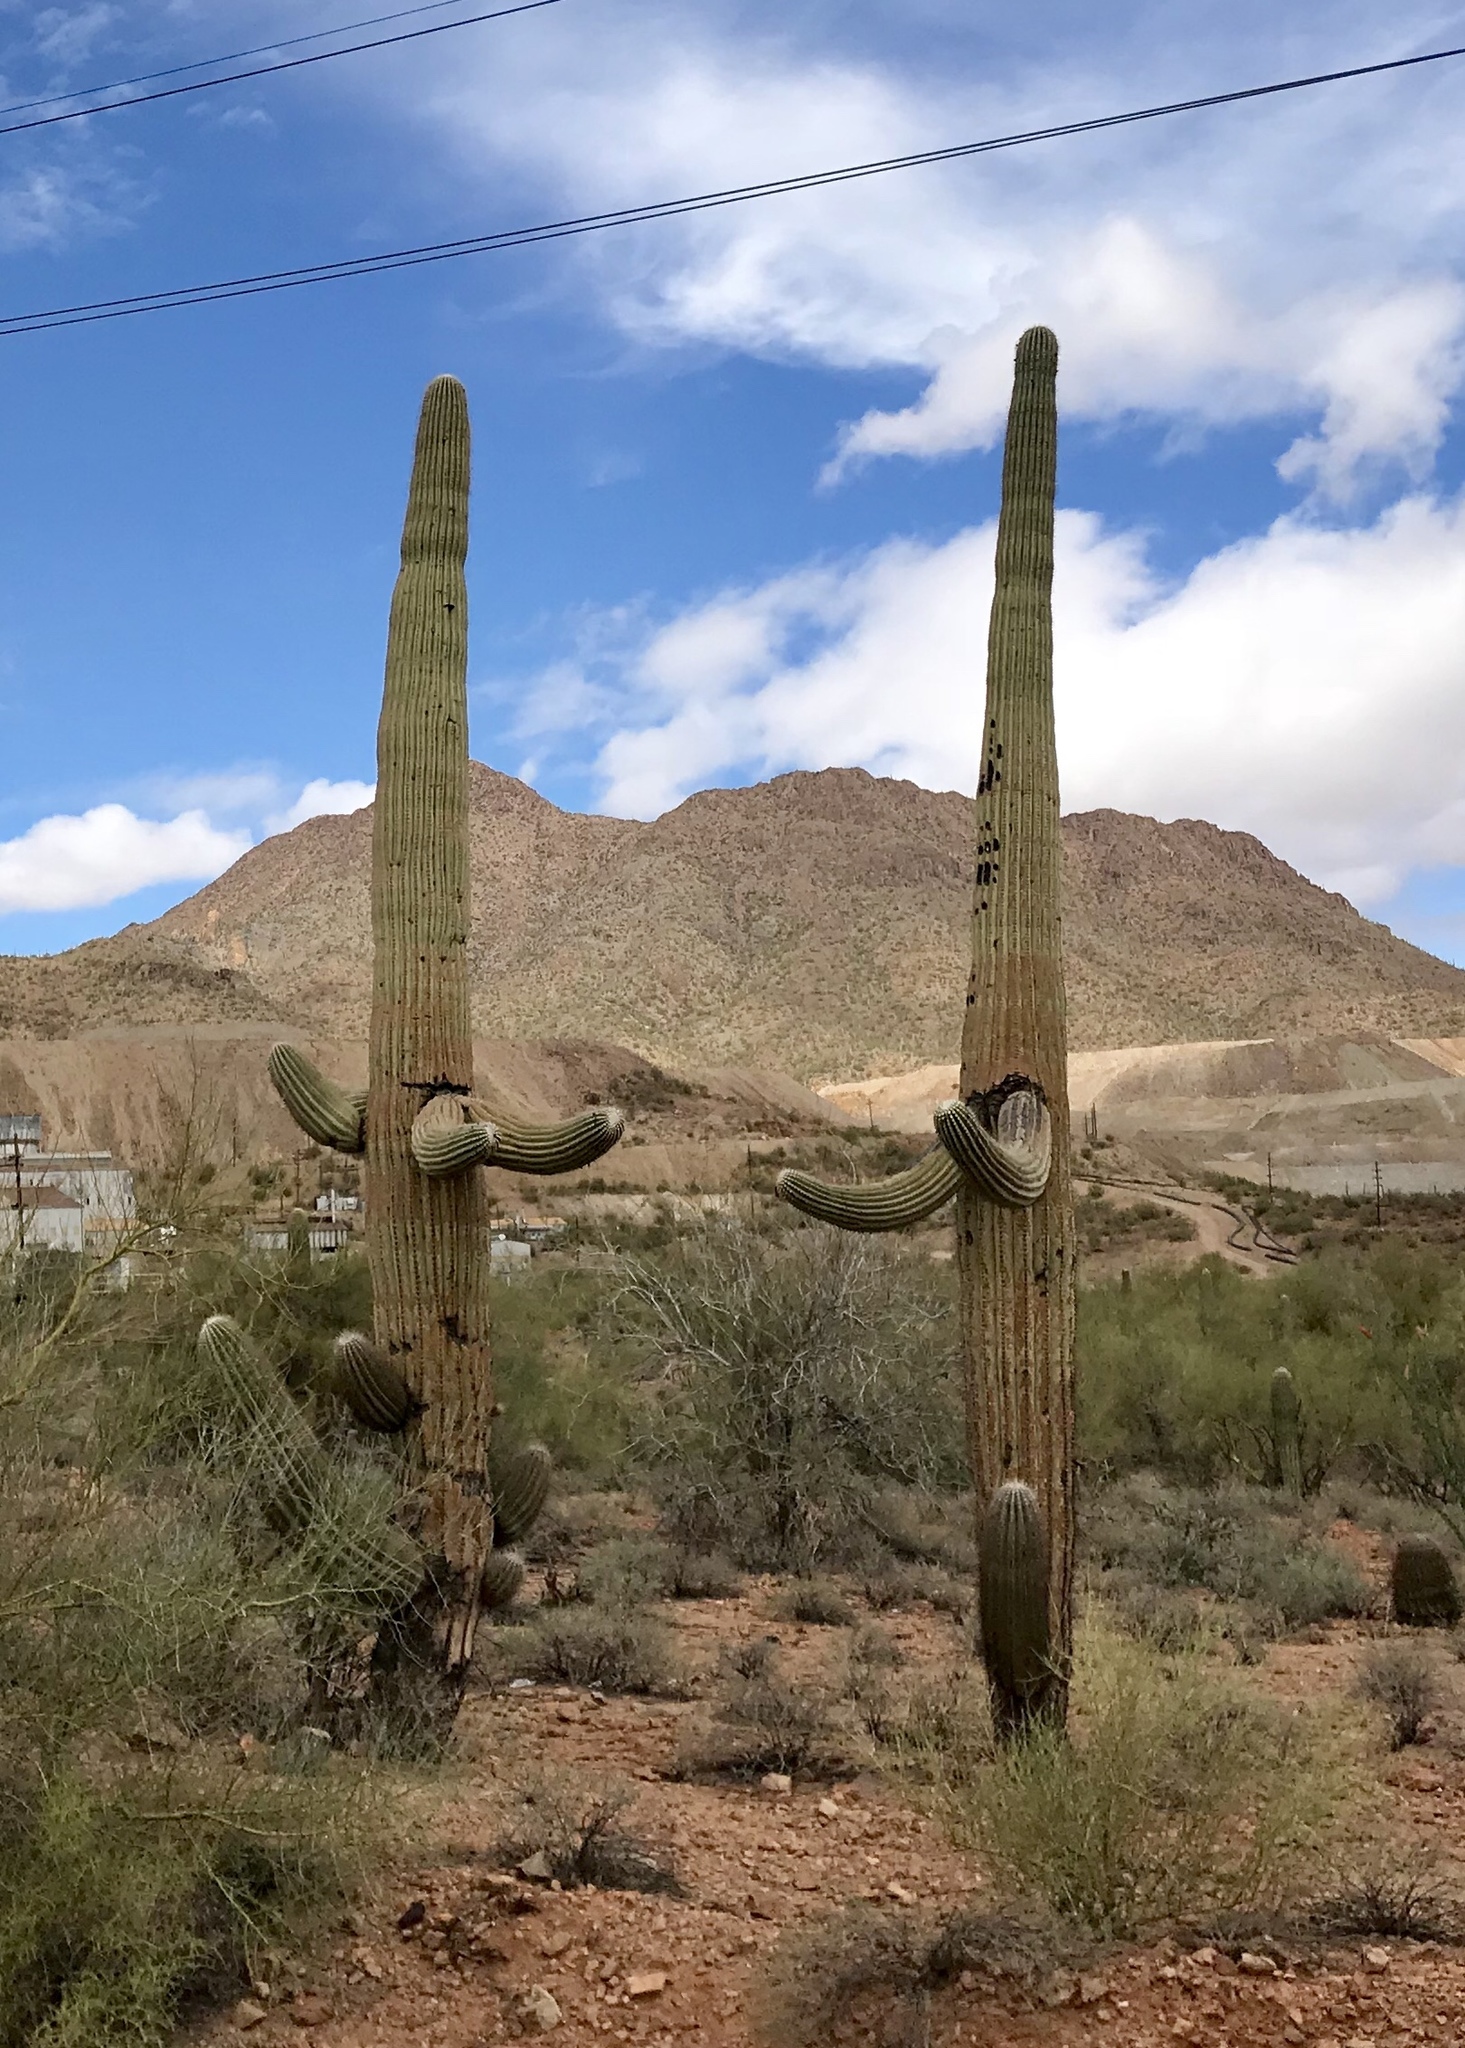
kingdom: Plantae
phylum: Tracheophyta
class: Magnoliopsida
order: Caryophyllales
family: Cactaceae
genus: Carnegiea
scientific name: Carnegiea gigantea
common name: Saguaro
